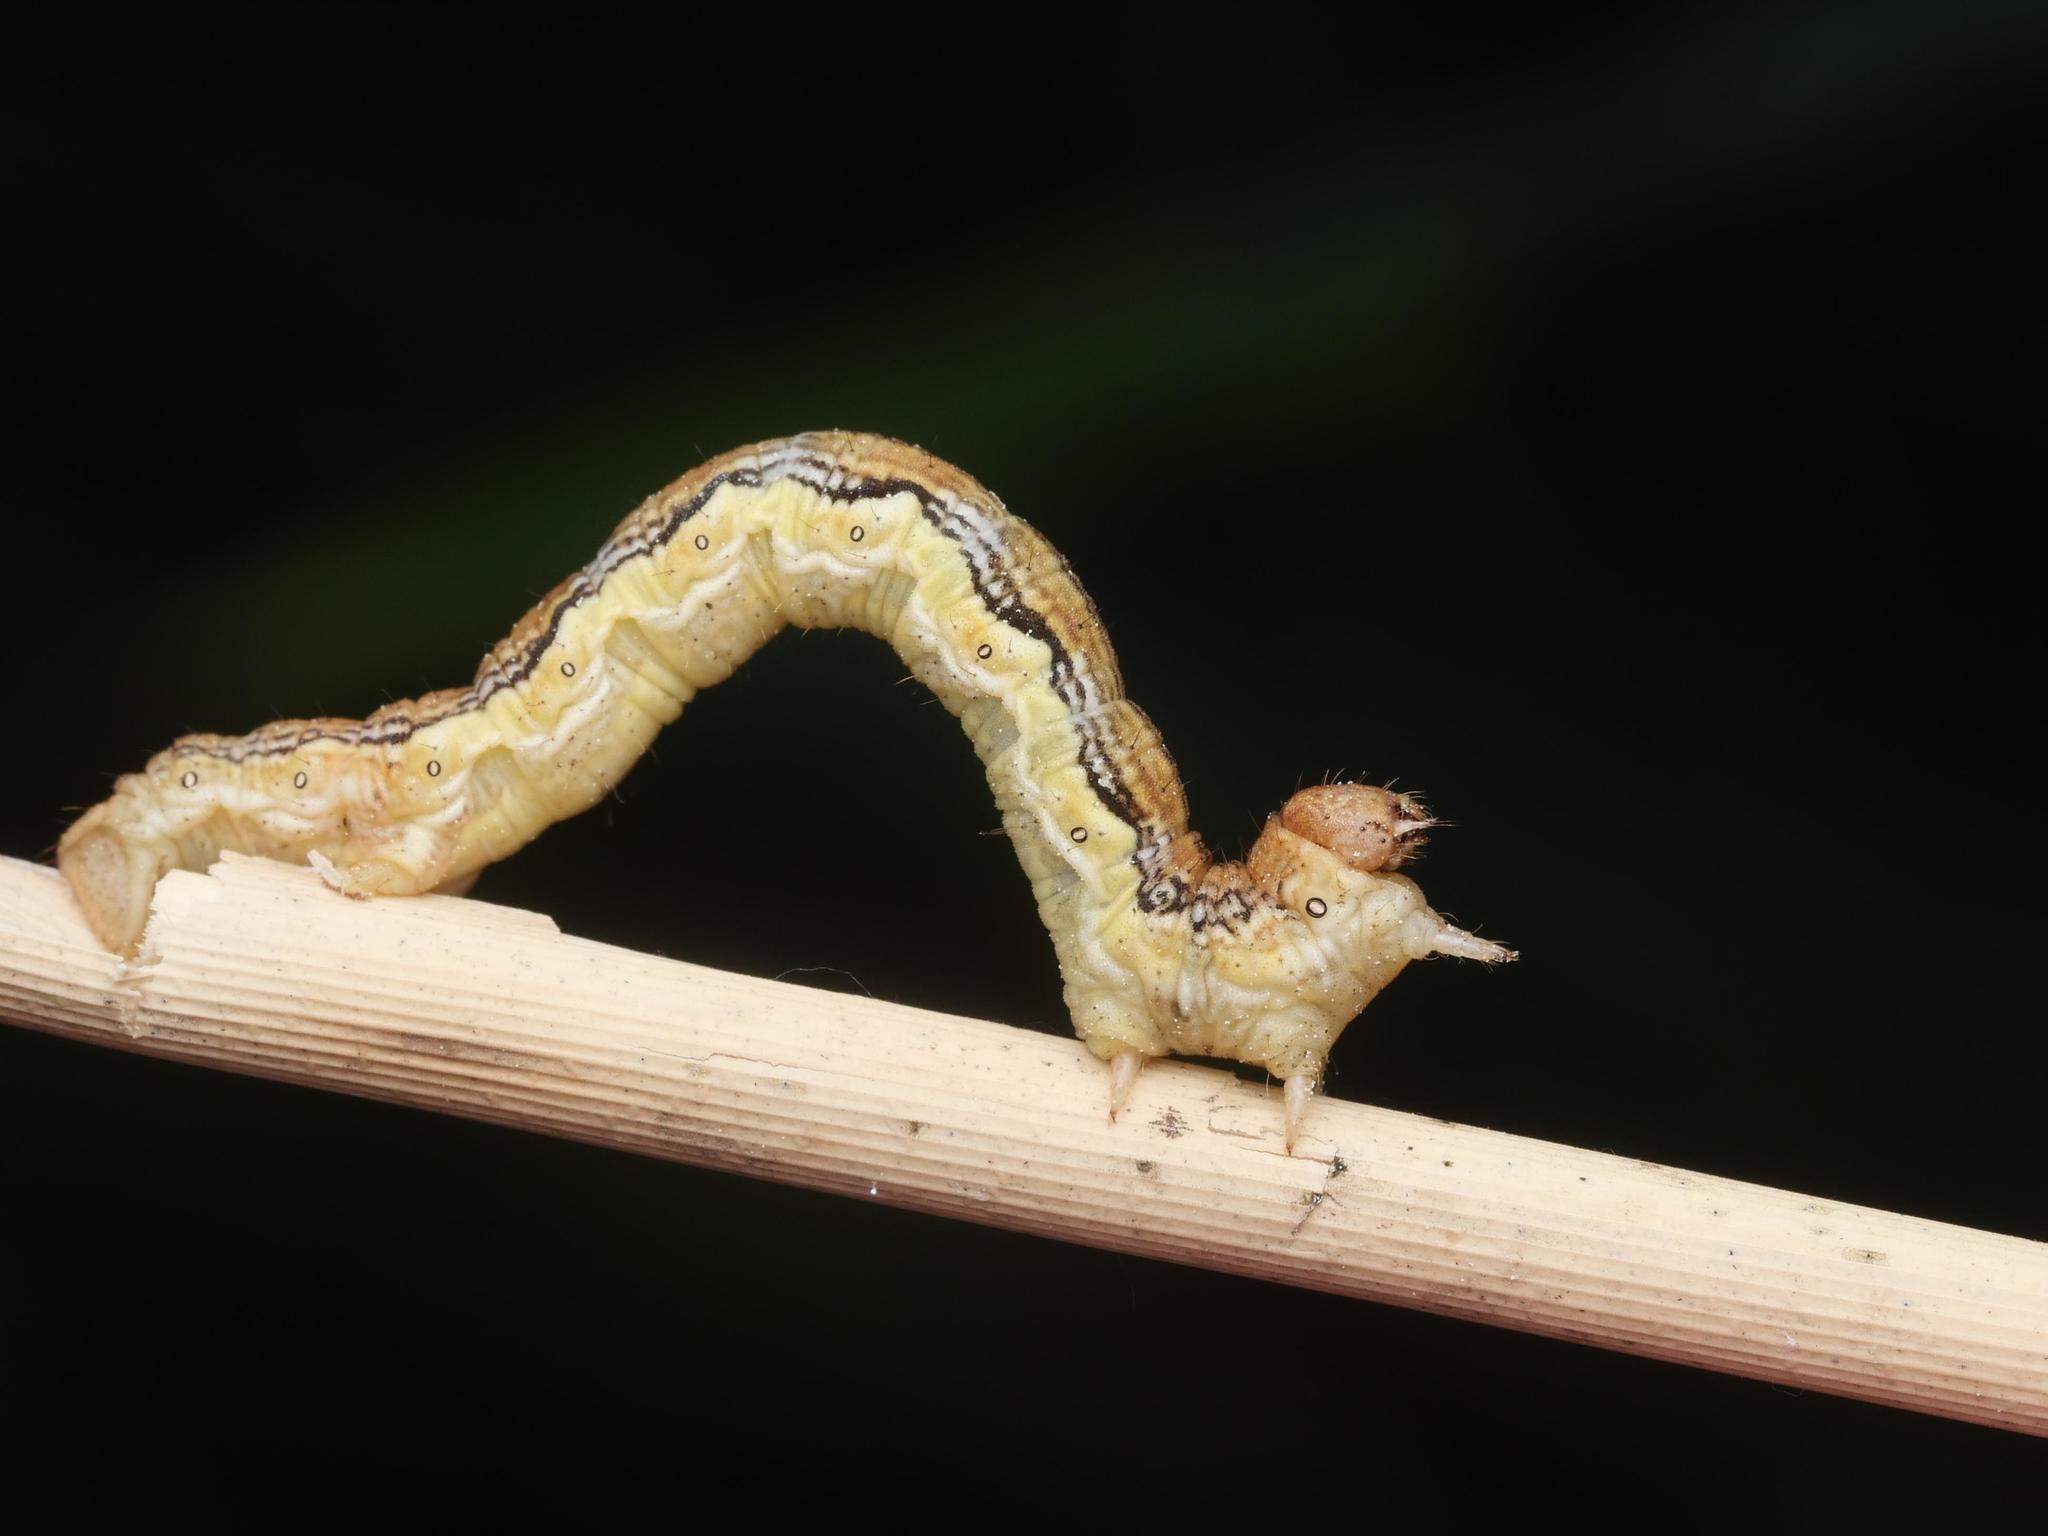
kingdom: Animalia
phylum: Arthropoda
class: Insecta
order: Lepidoptera
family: Geometridae
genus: Erannis
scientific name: Erannis defoliaria
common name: Mottled umber
